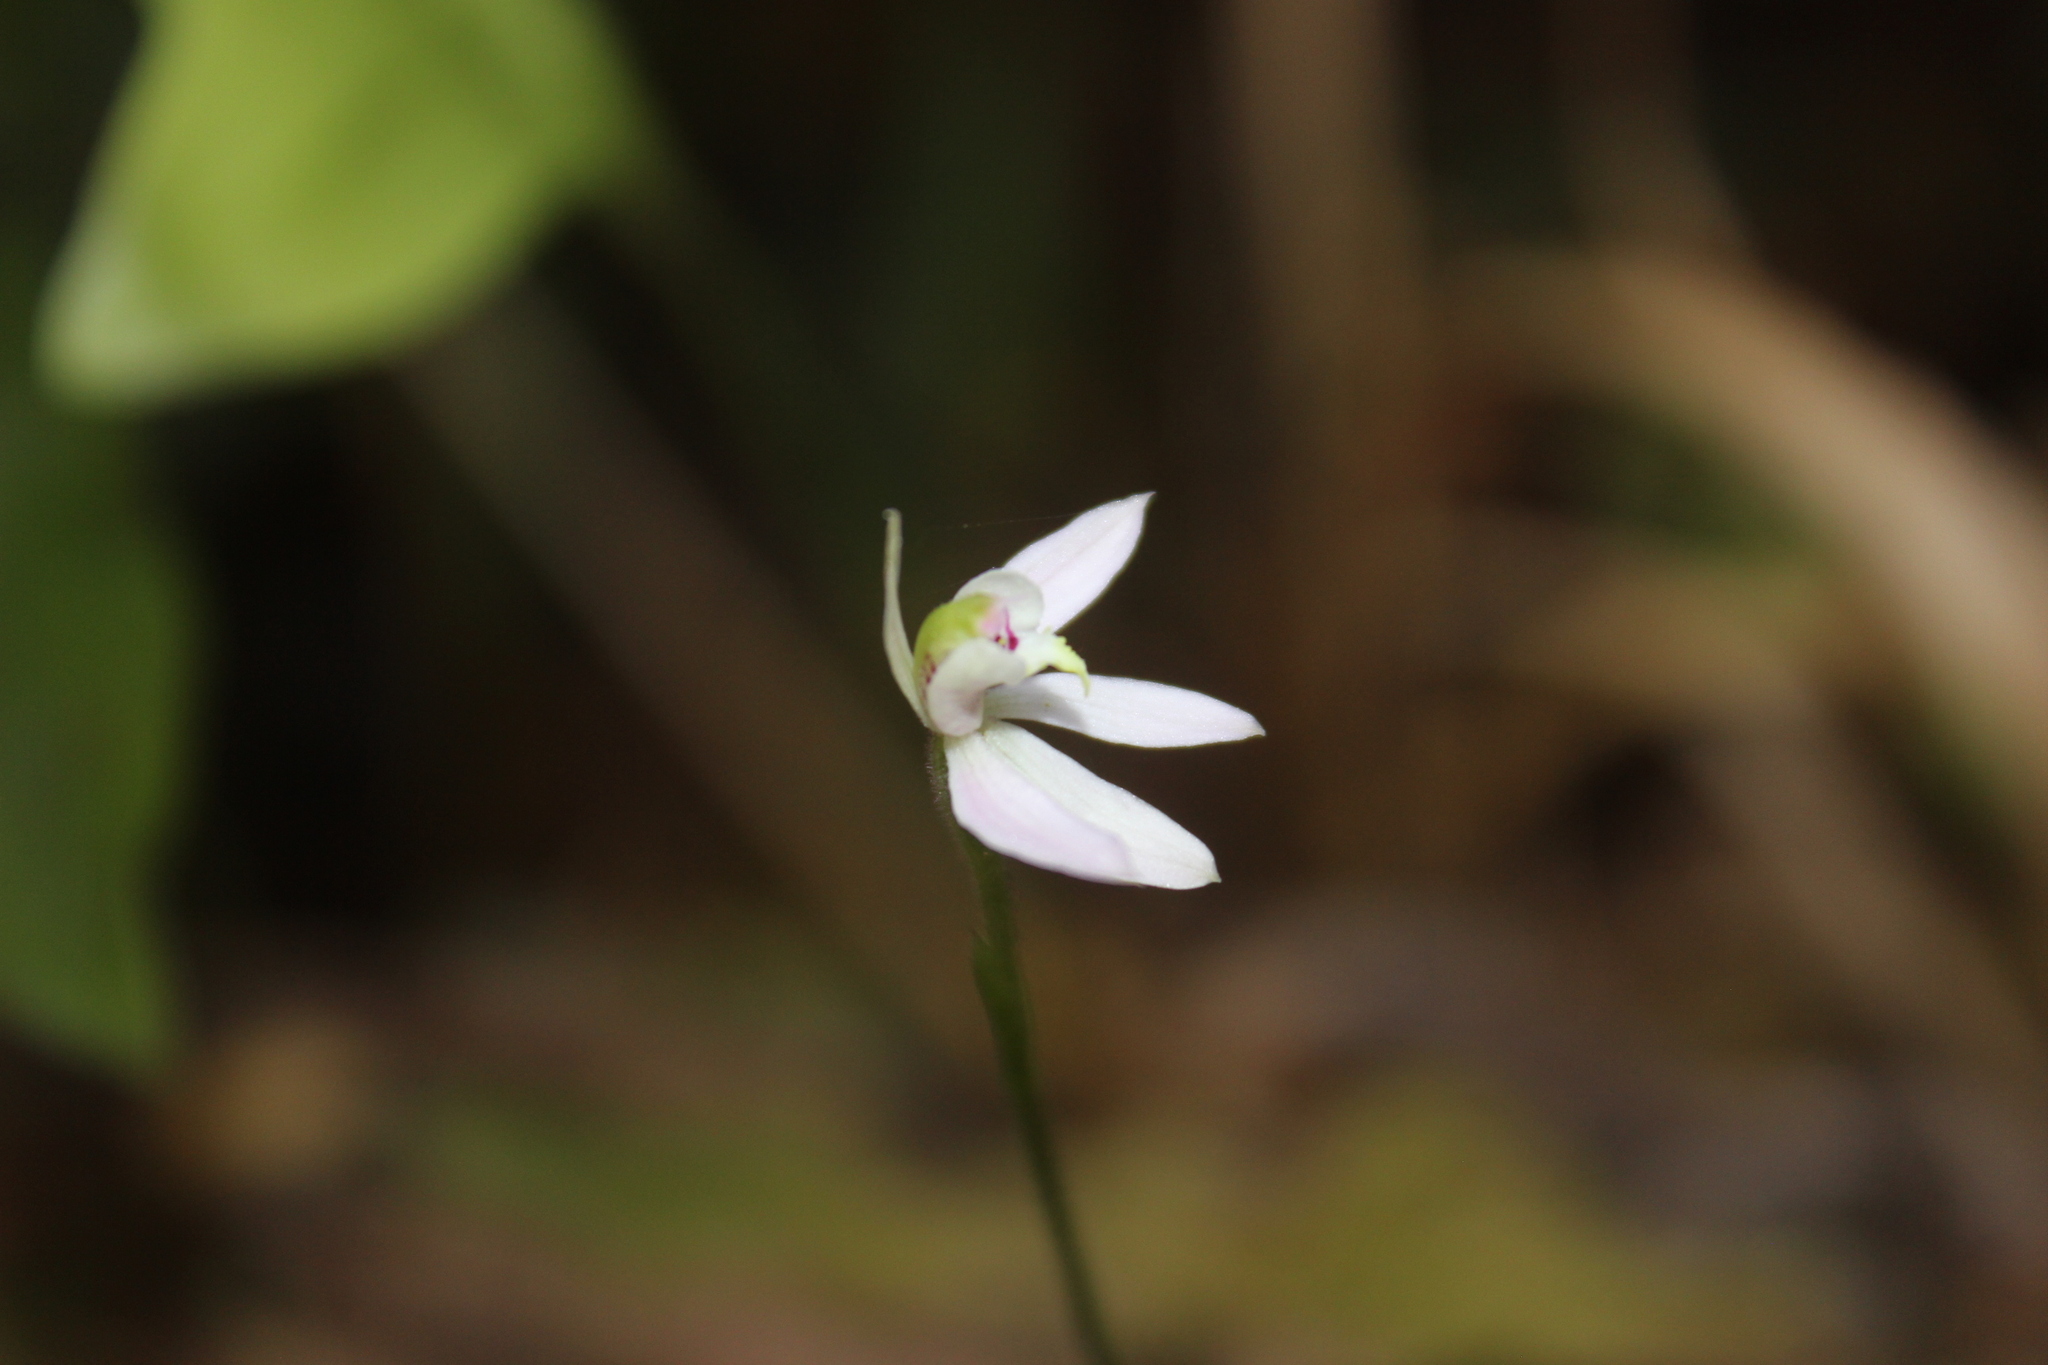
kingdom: Plantae
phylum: Tracheophyta
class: Liliopsida
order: Asparagales
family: Orchidaceae
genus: Caladenia
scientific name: Caladenia variegata
